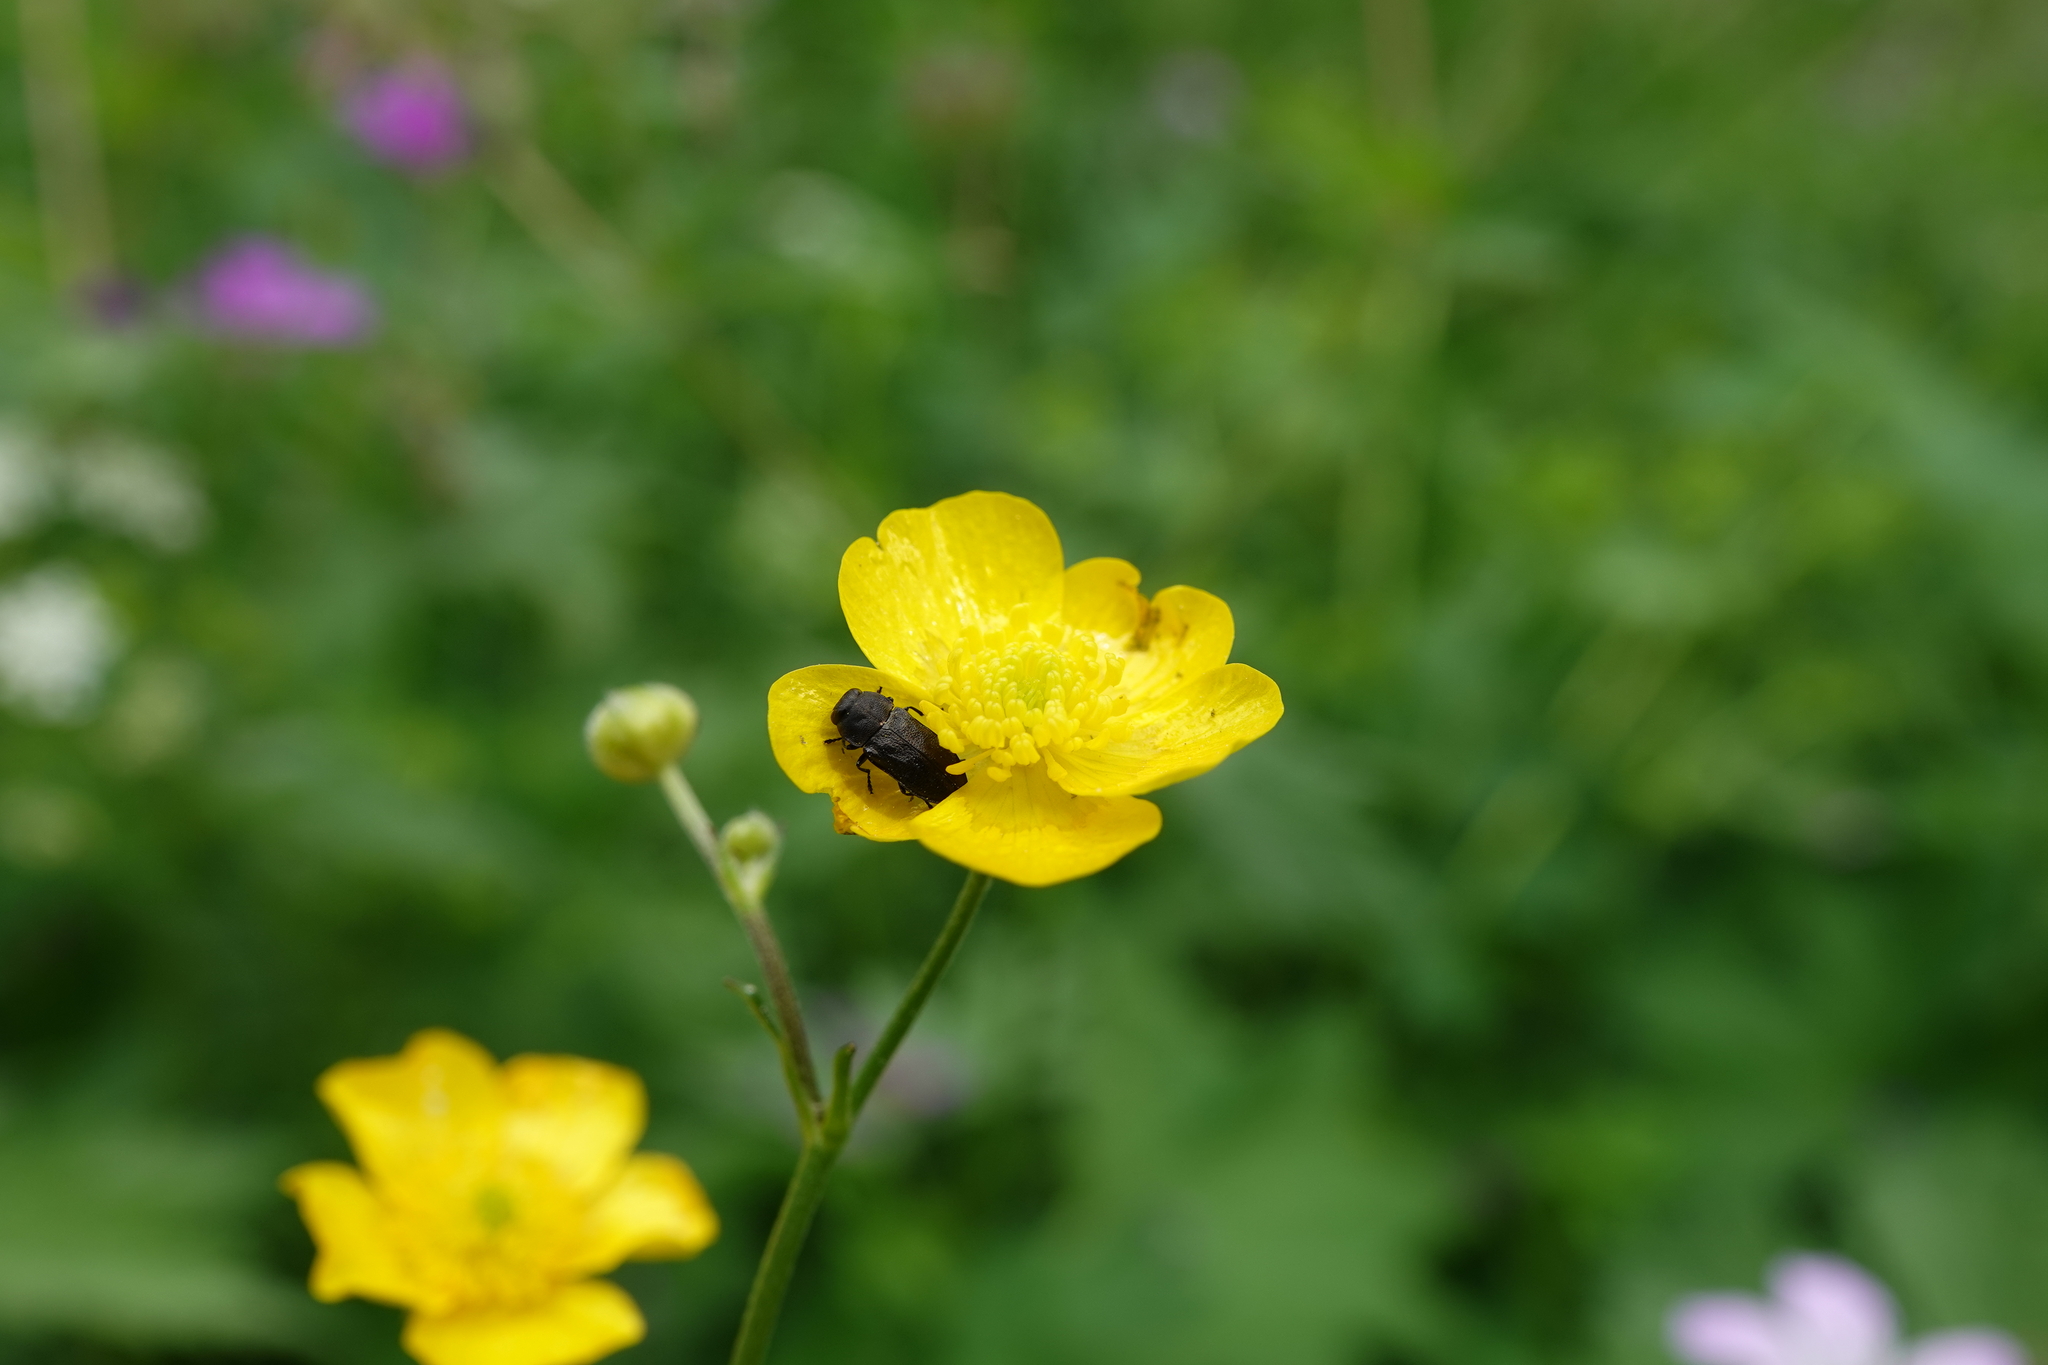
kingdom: Animalia
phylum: Arthropoda
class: Insecta
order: Coleoptera
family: Buprestidae
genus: Anthaxia
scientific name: Anthaxia quadripunctata
